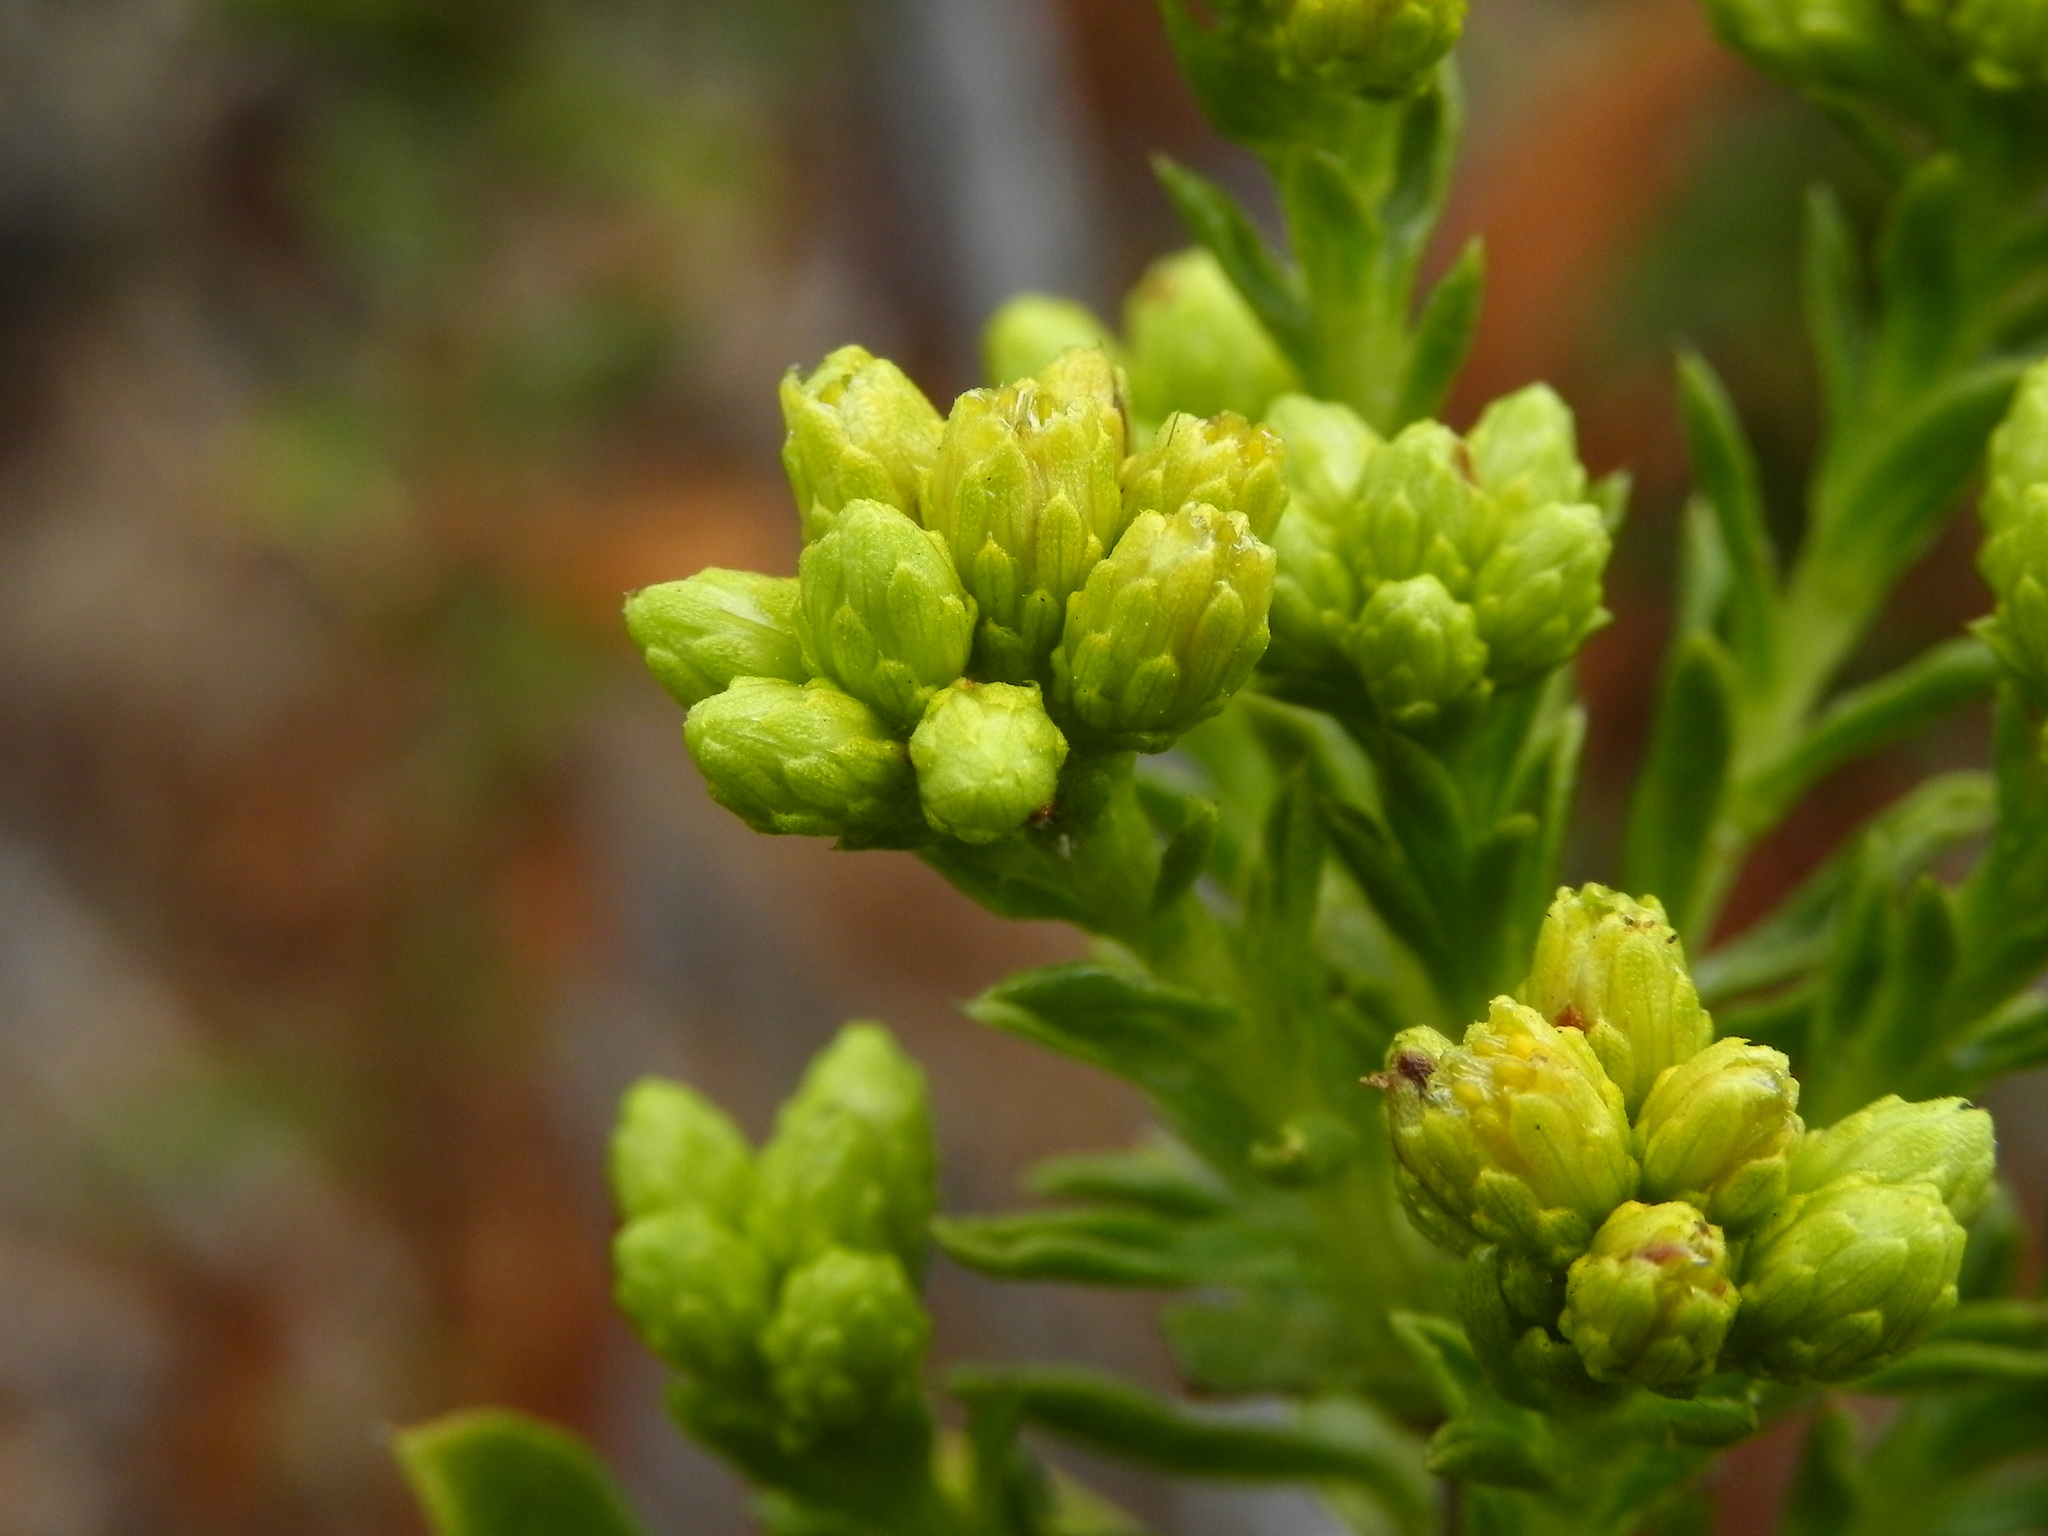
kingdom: Plantae
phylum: Tracheophyta
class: Magnoliopsida
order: Asterales
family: Asteraceae
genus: Isocoma
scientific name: Isocoma menziesii
